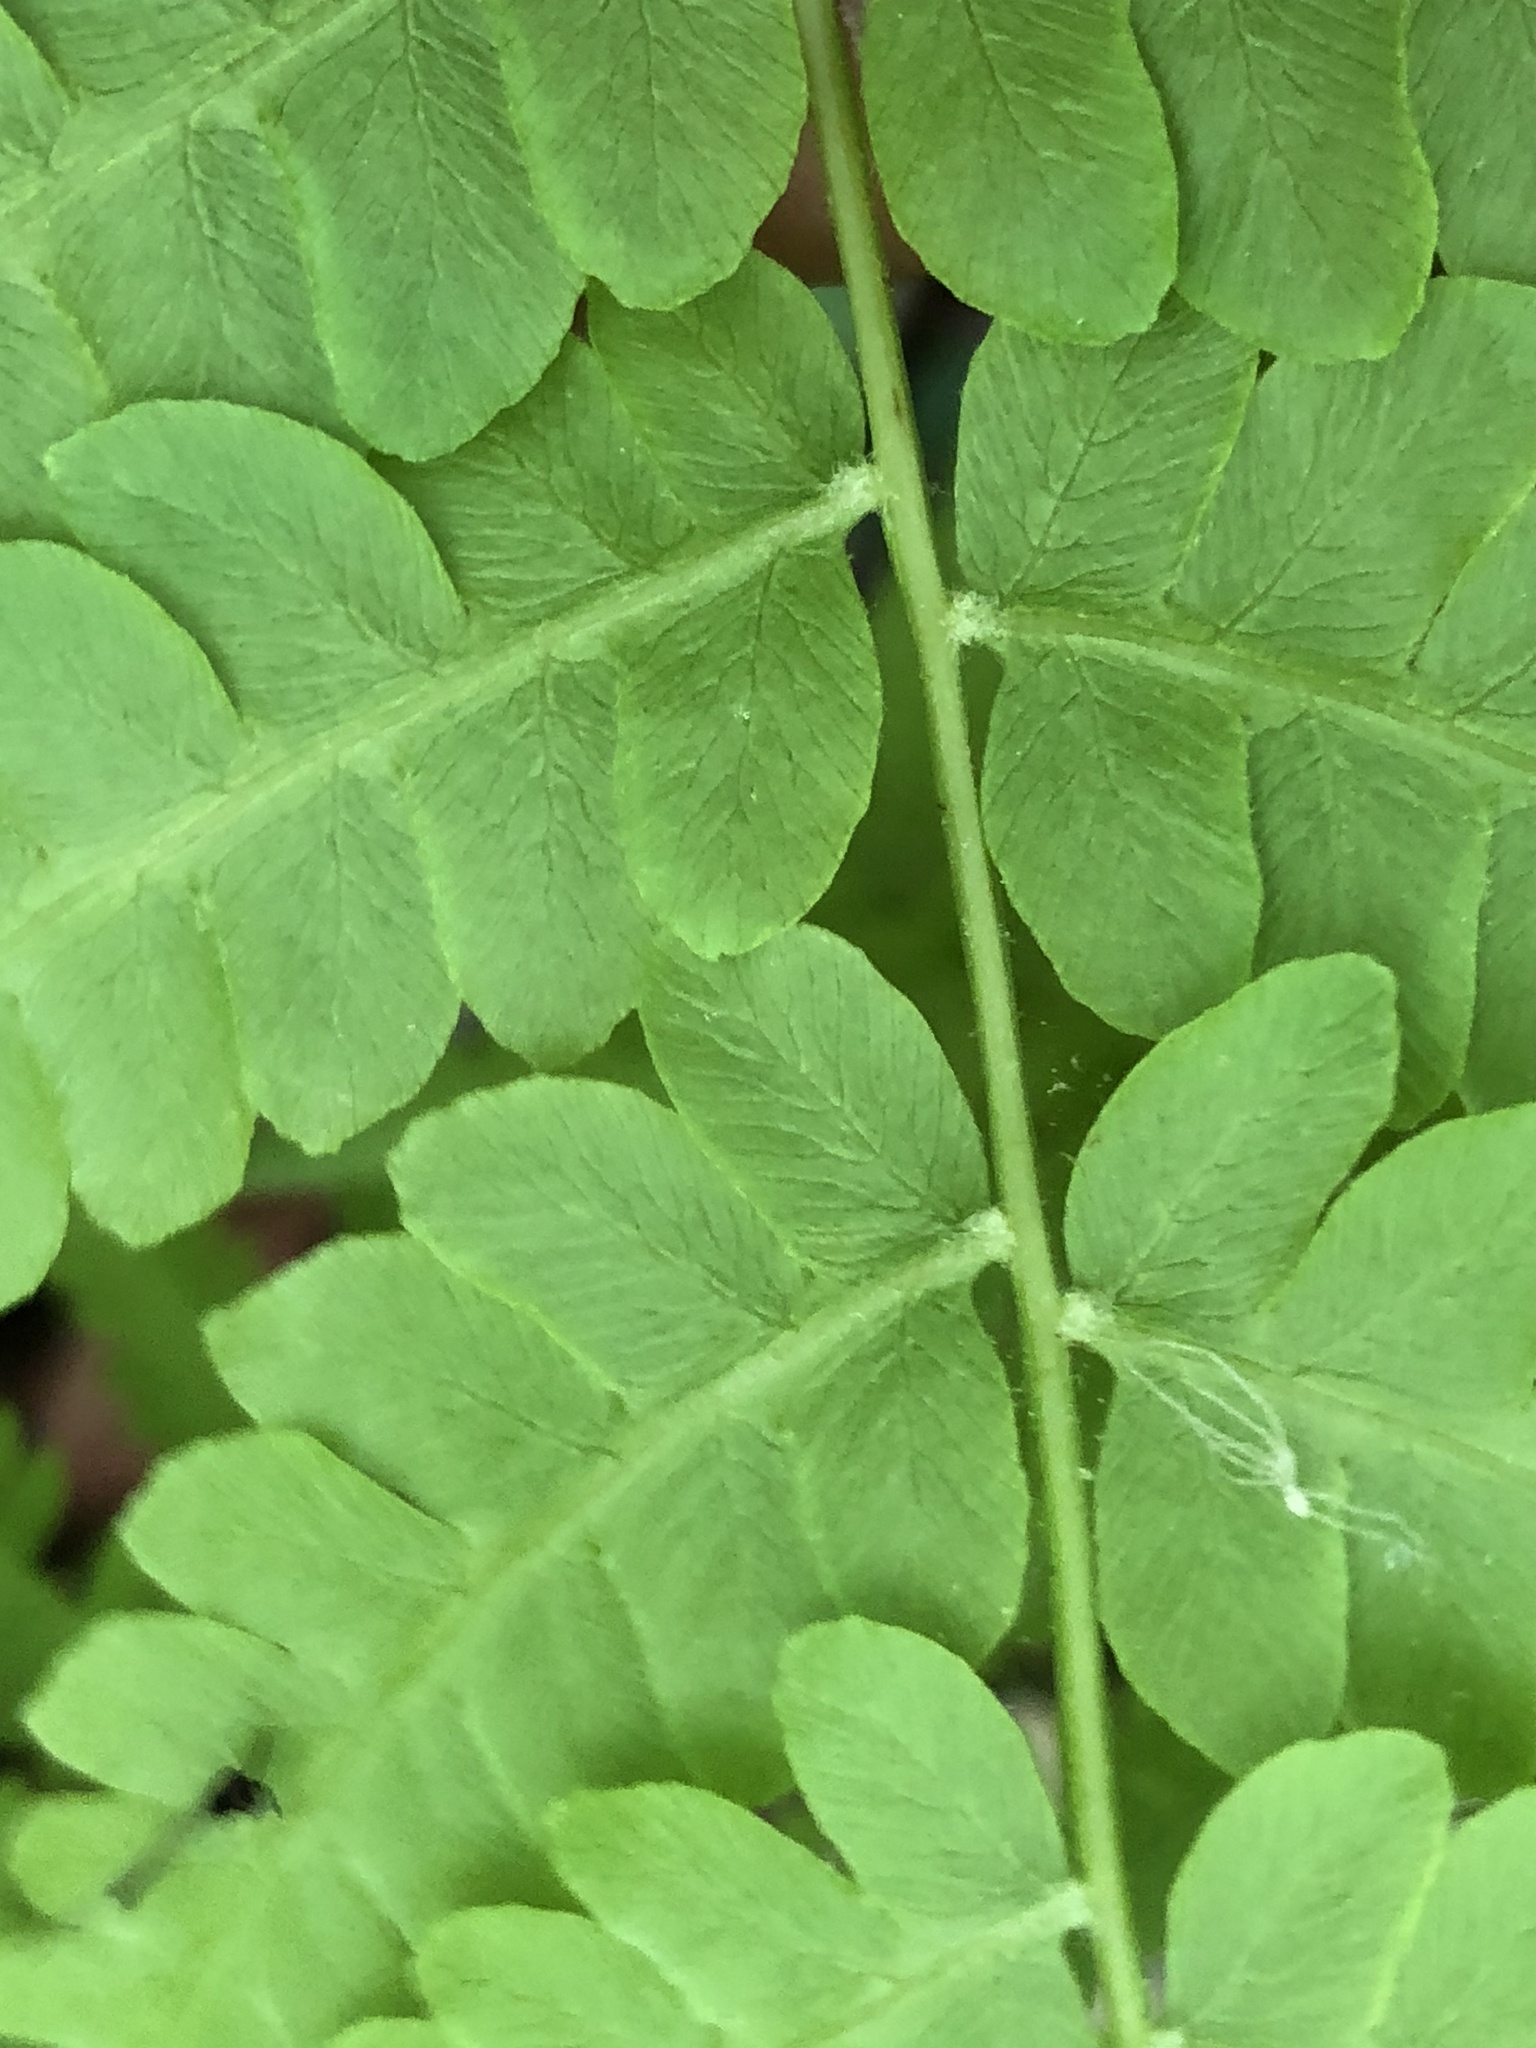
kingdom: Plantae
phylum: Tracheophyta
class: Polypodiopsida
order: Osmundales
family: Osmundaceae
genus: Osmundastrum
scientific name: Osmundastrum cinnamomeum
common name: Cinnamon fern
